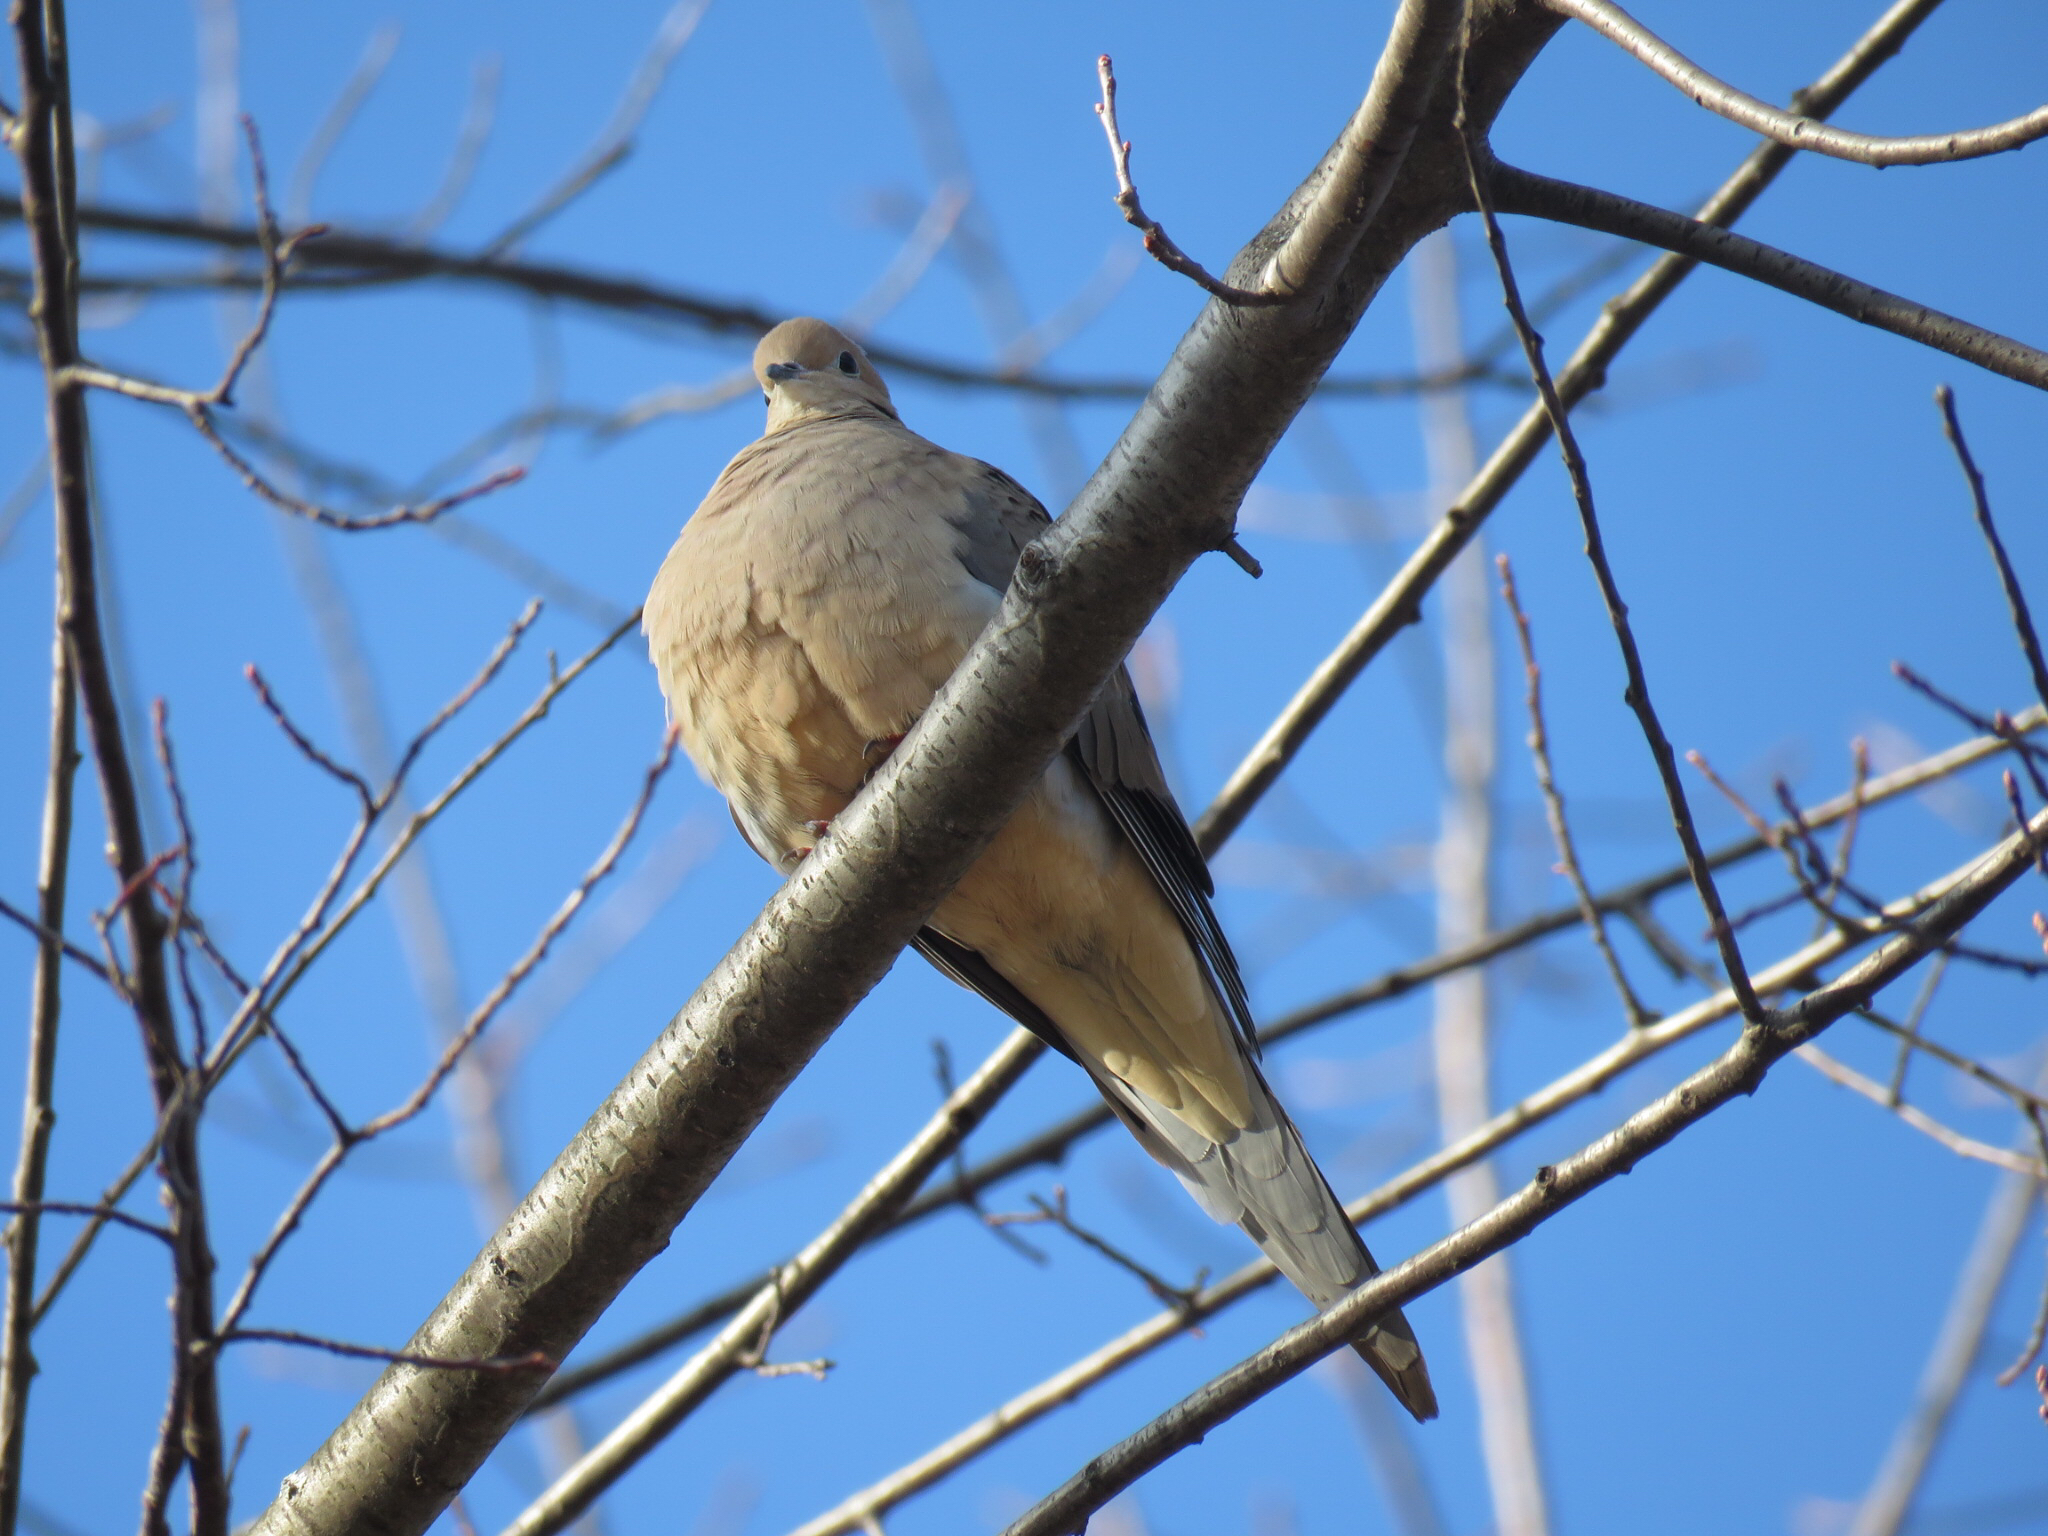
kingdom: Animalia
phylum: Chordata
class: Aves
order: Columbiformes
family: Columbidae
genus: Zenaida
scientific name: Zenaida macroura
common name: Mourning dove
